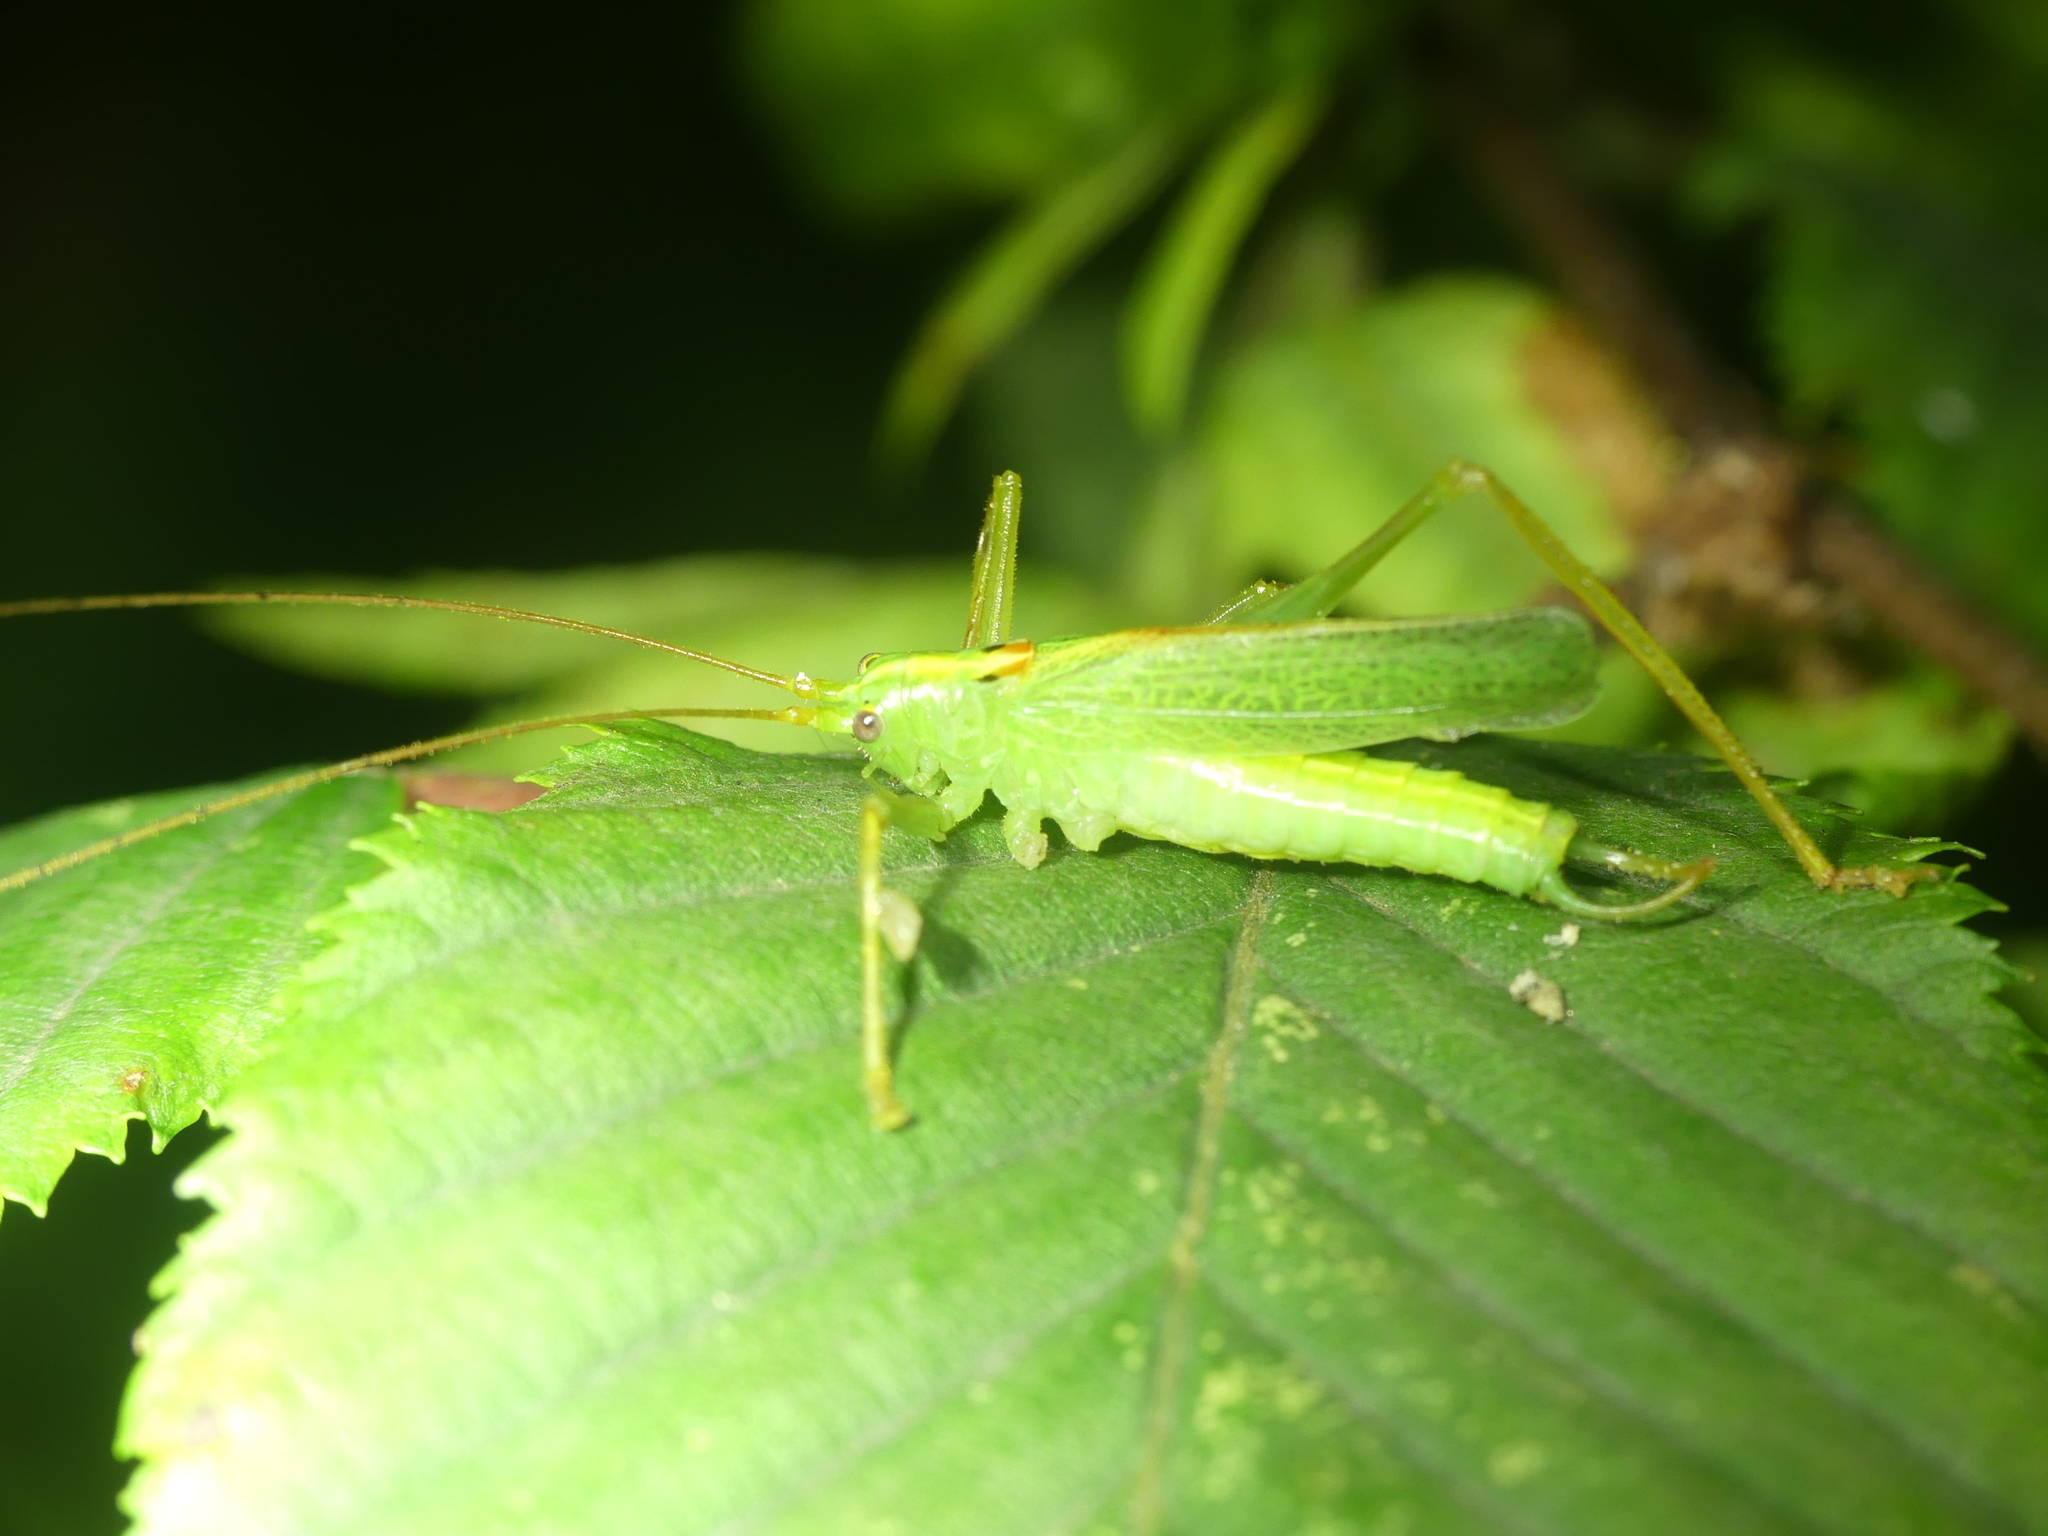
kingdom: Animalia
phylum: Arthropoda
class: Insecta
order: Orthoptera
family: Tettigoniidae
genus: Meconema
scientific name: Meconema thalassinum
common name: Oak bush-cricket
